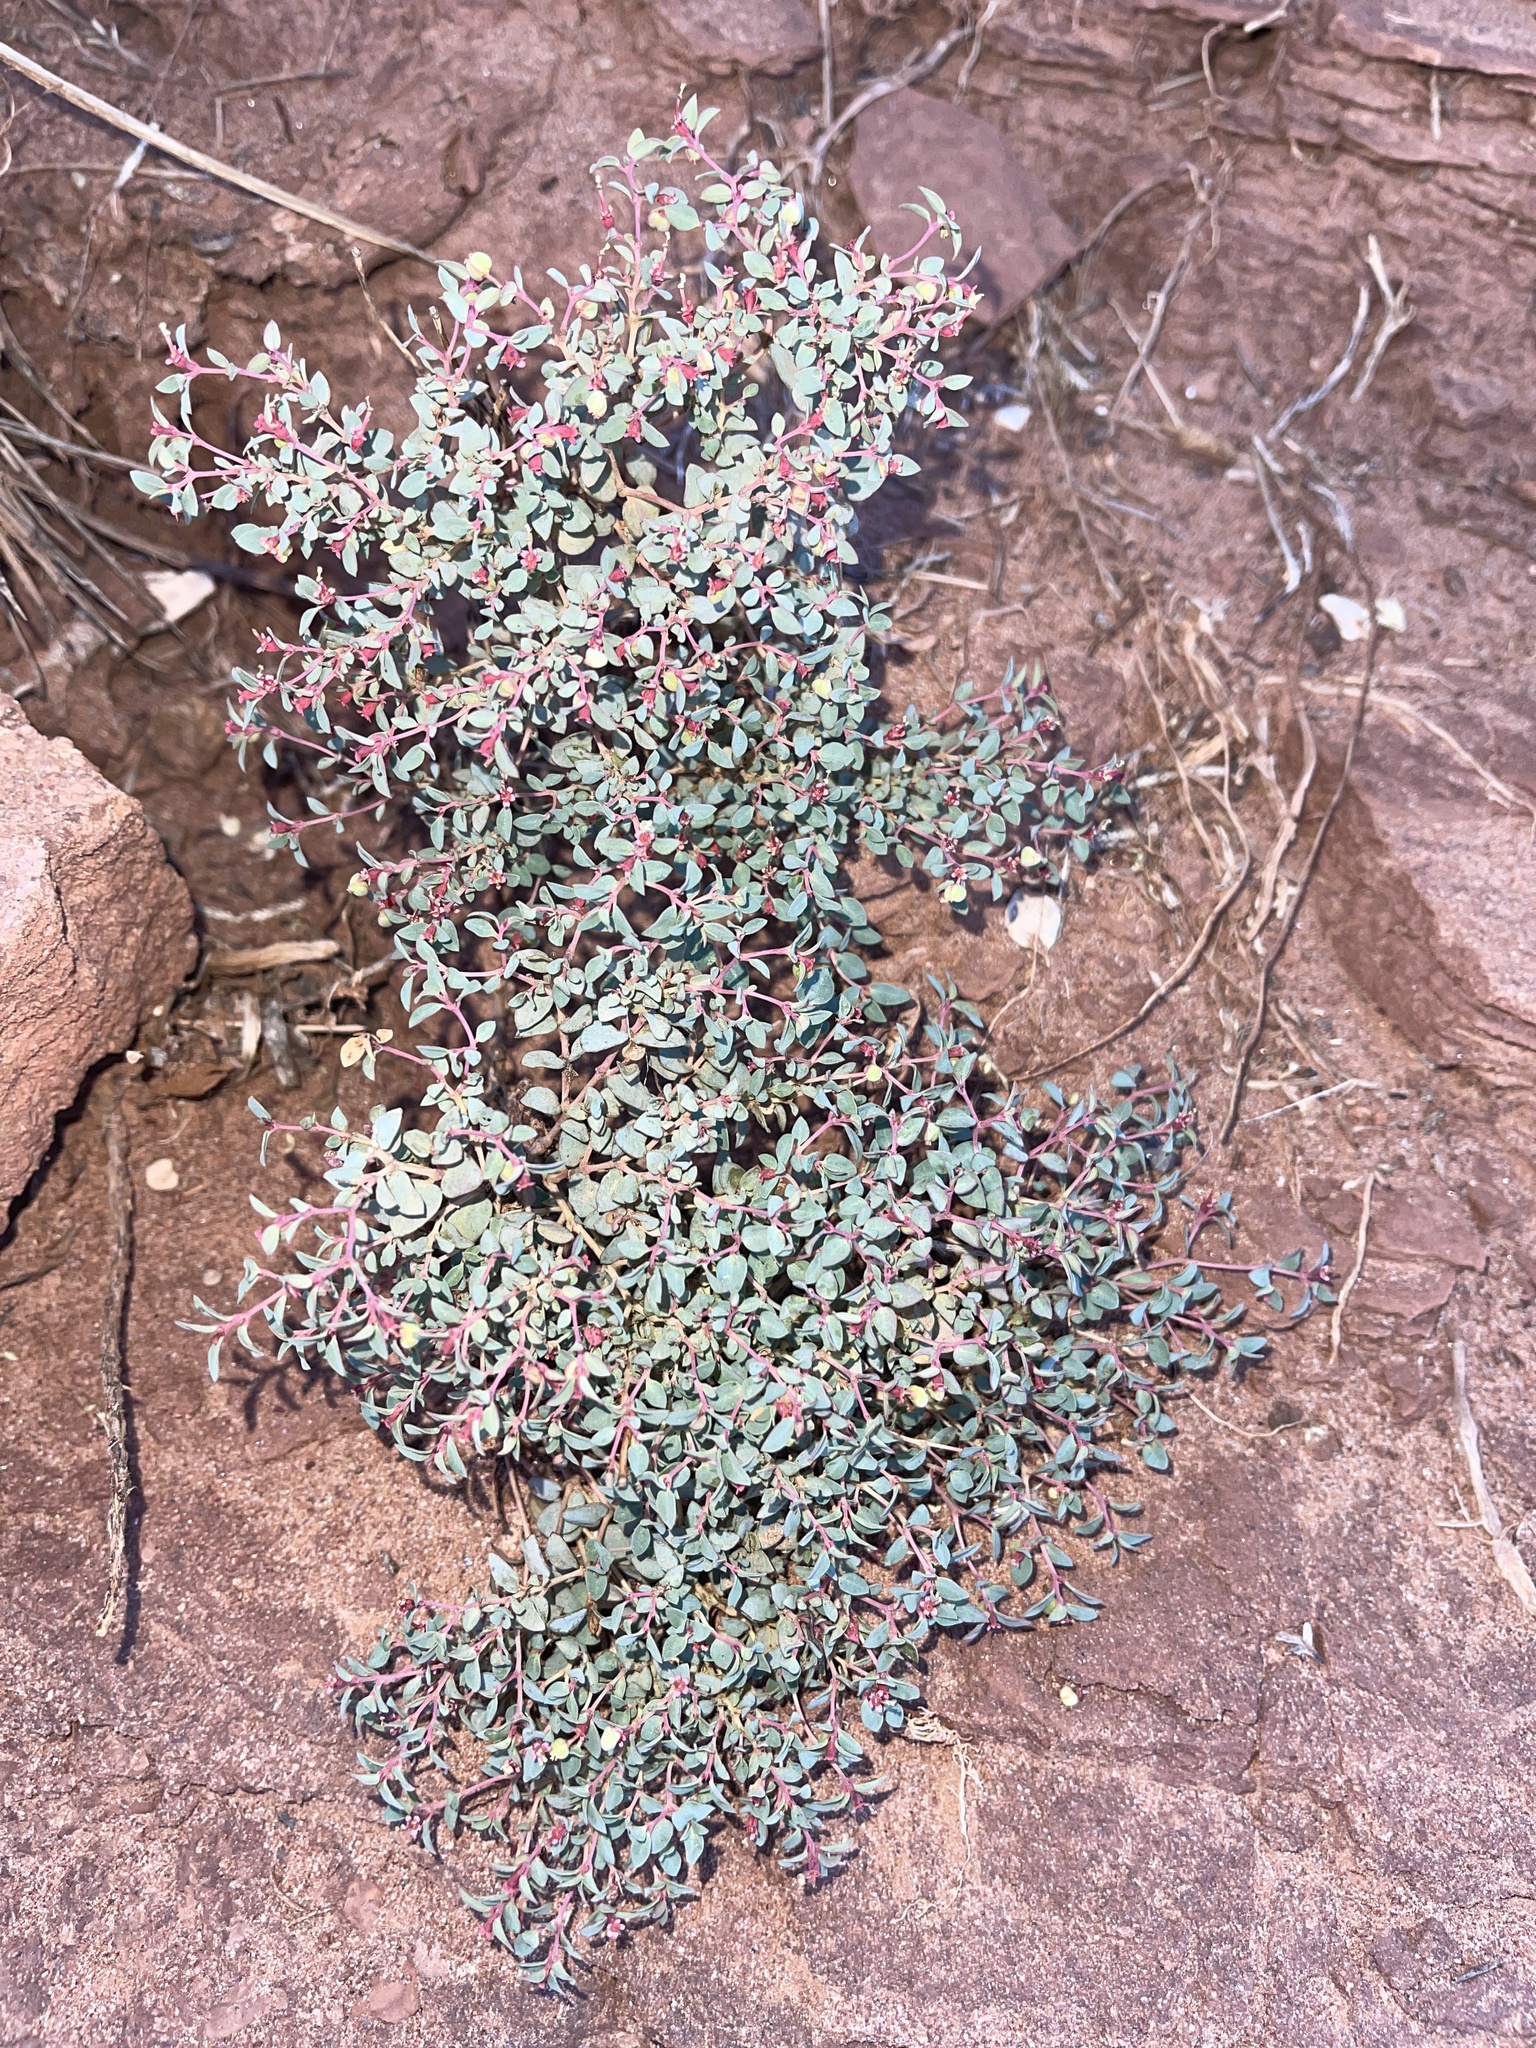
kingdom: Plantae
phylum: Tracheophyta
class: Magnoliopsida
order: Malpighiales
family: Euphorbiaceae
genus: Euphorbia
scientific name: Euphorbia fendleri
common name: Fendler's euphorbia
